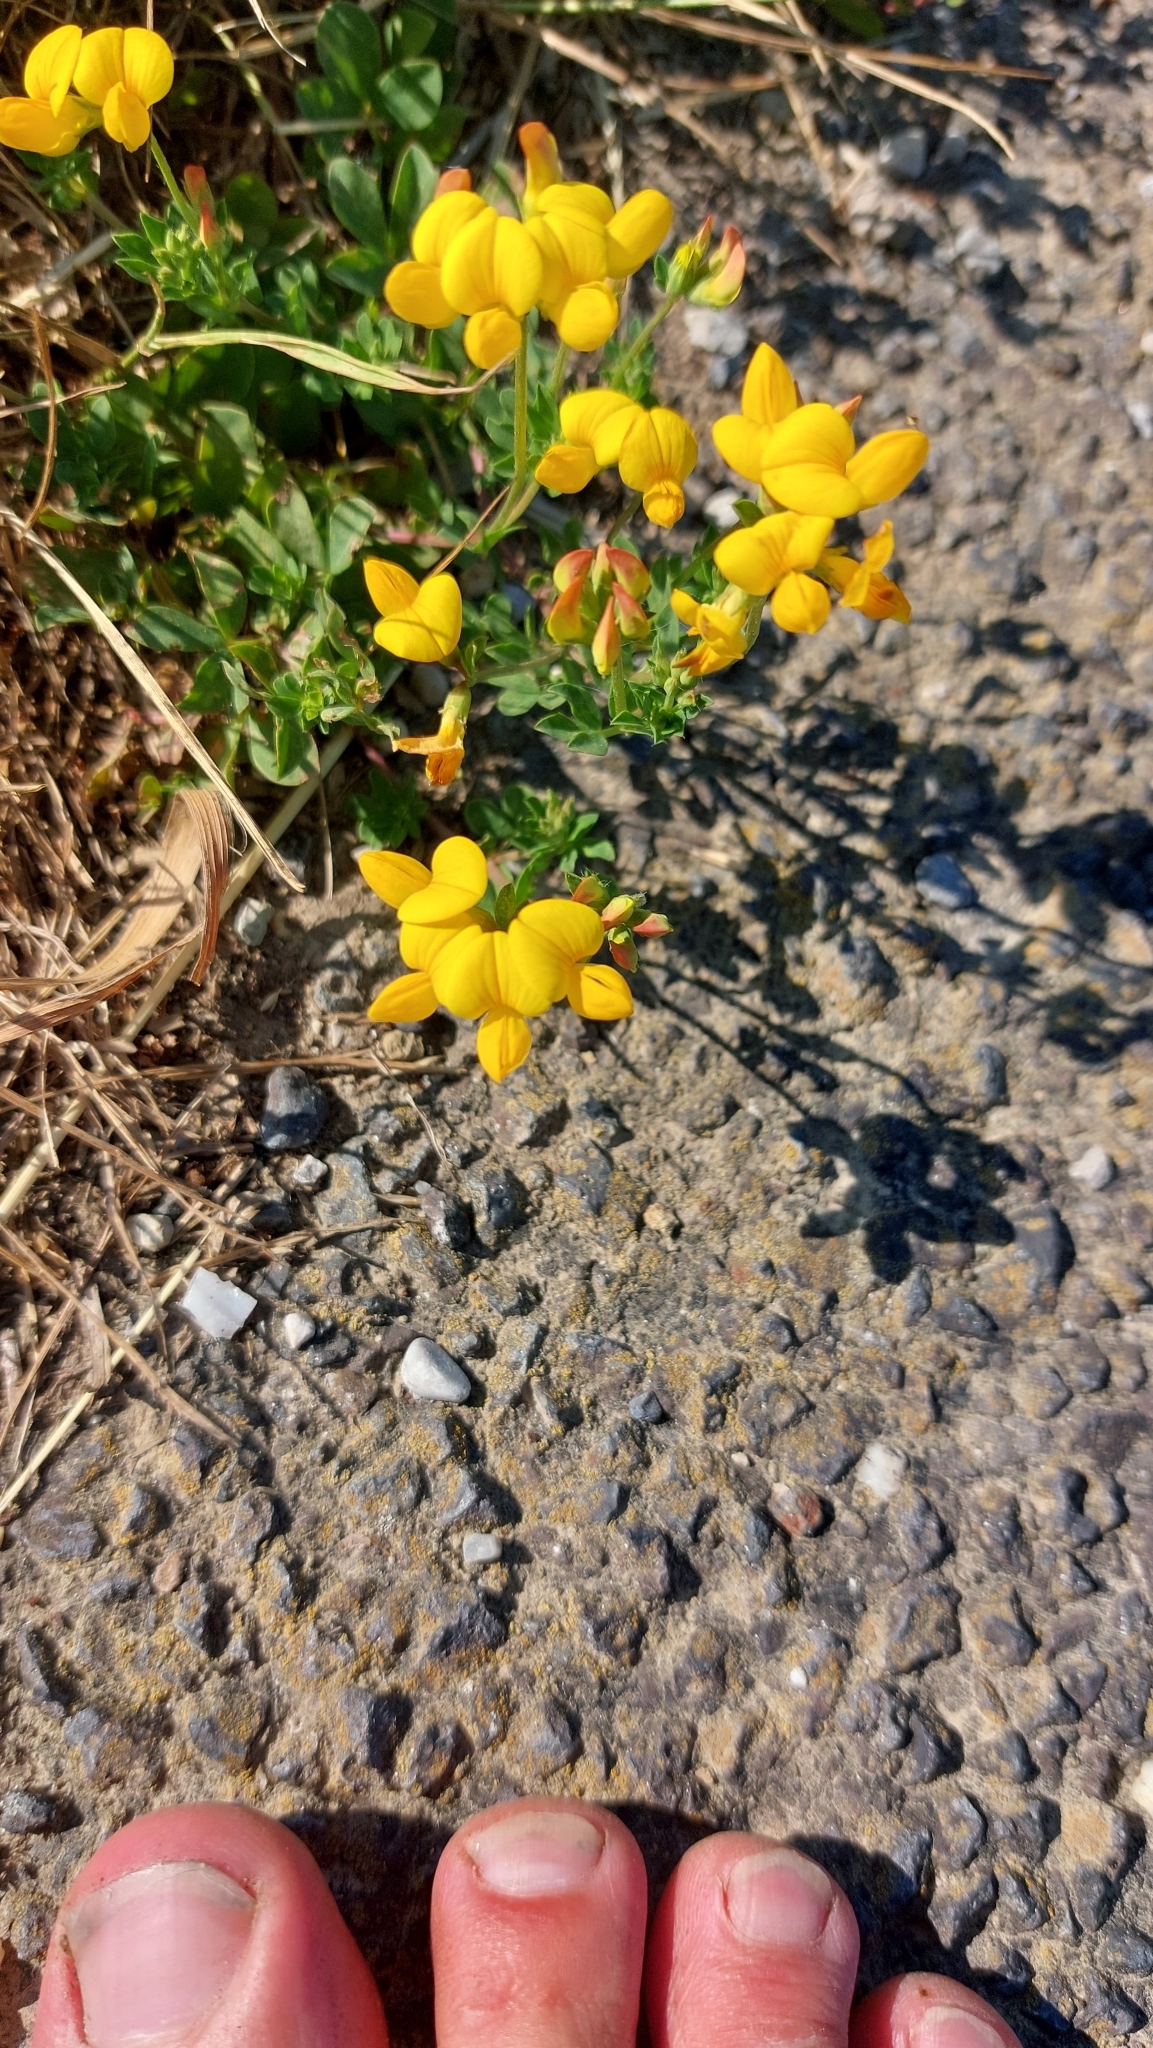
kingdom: Plantae
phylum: Tracheophyta
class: Magnoliopsida
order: Fabales
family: Fabaceae
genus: Lotus
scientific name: Lotus corniculatus
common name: Common bird's-foot-trefoil
